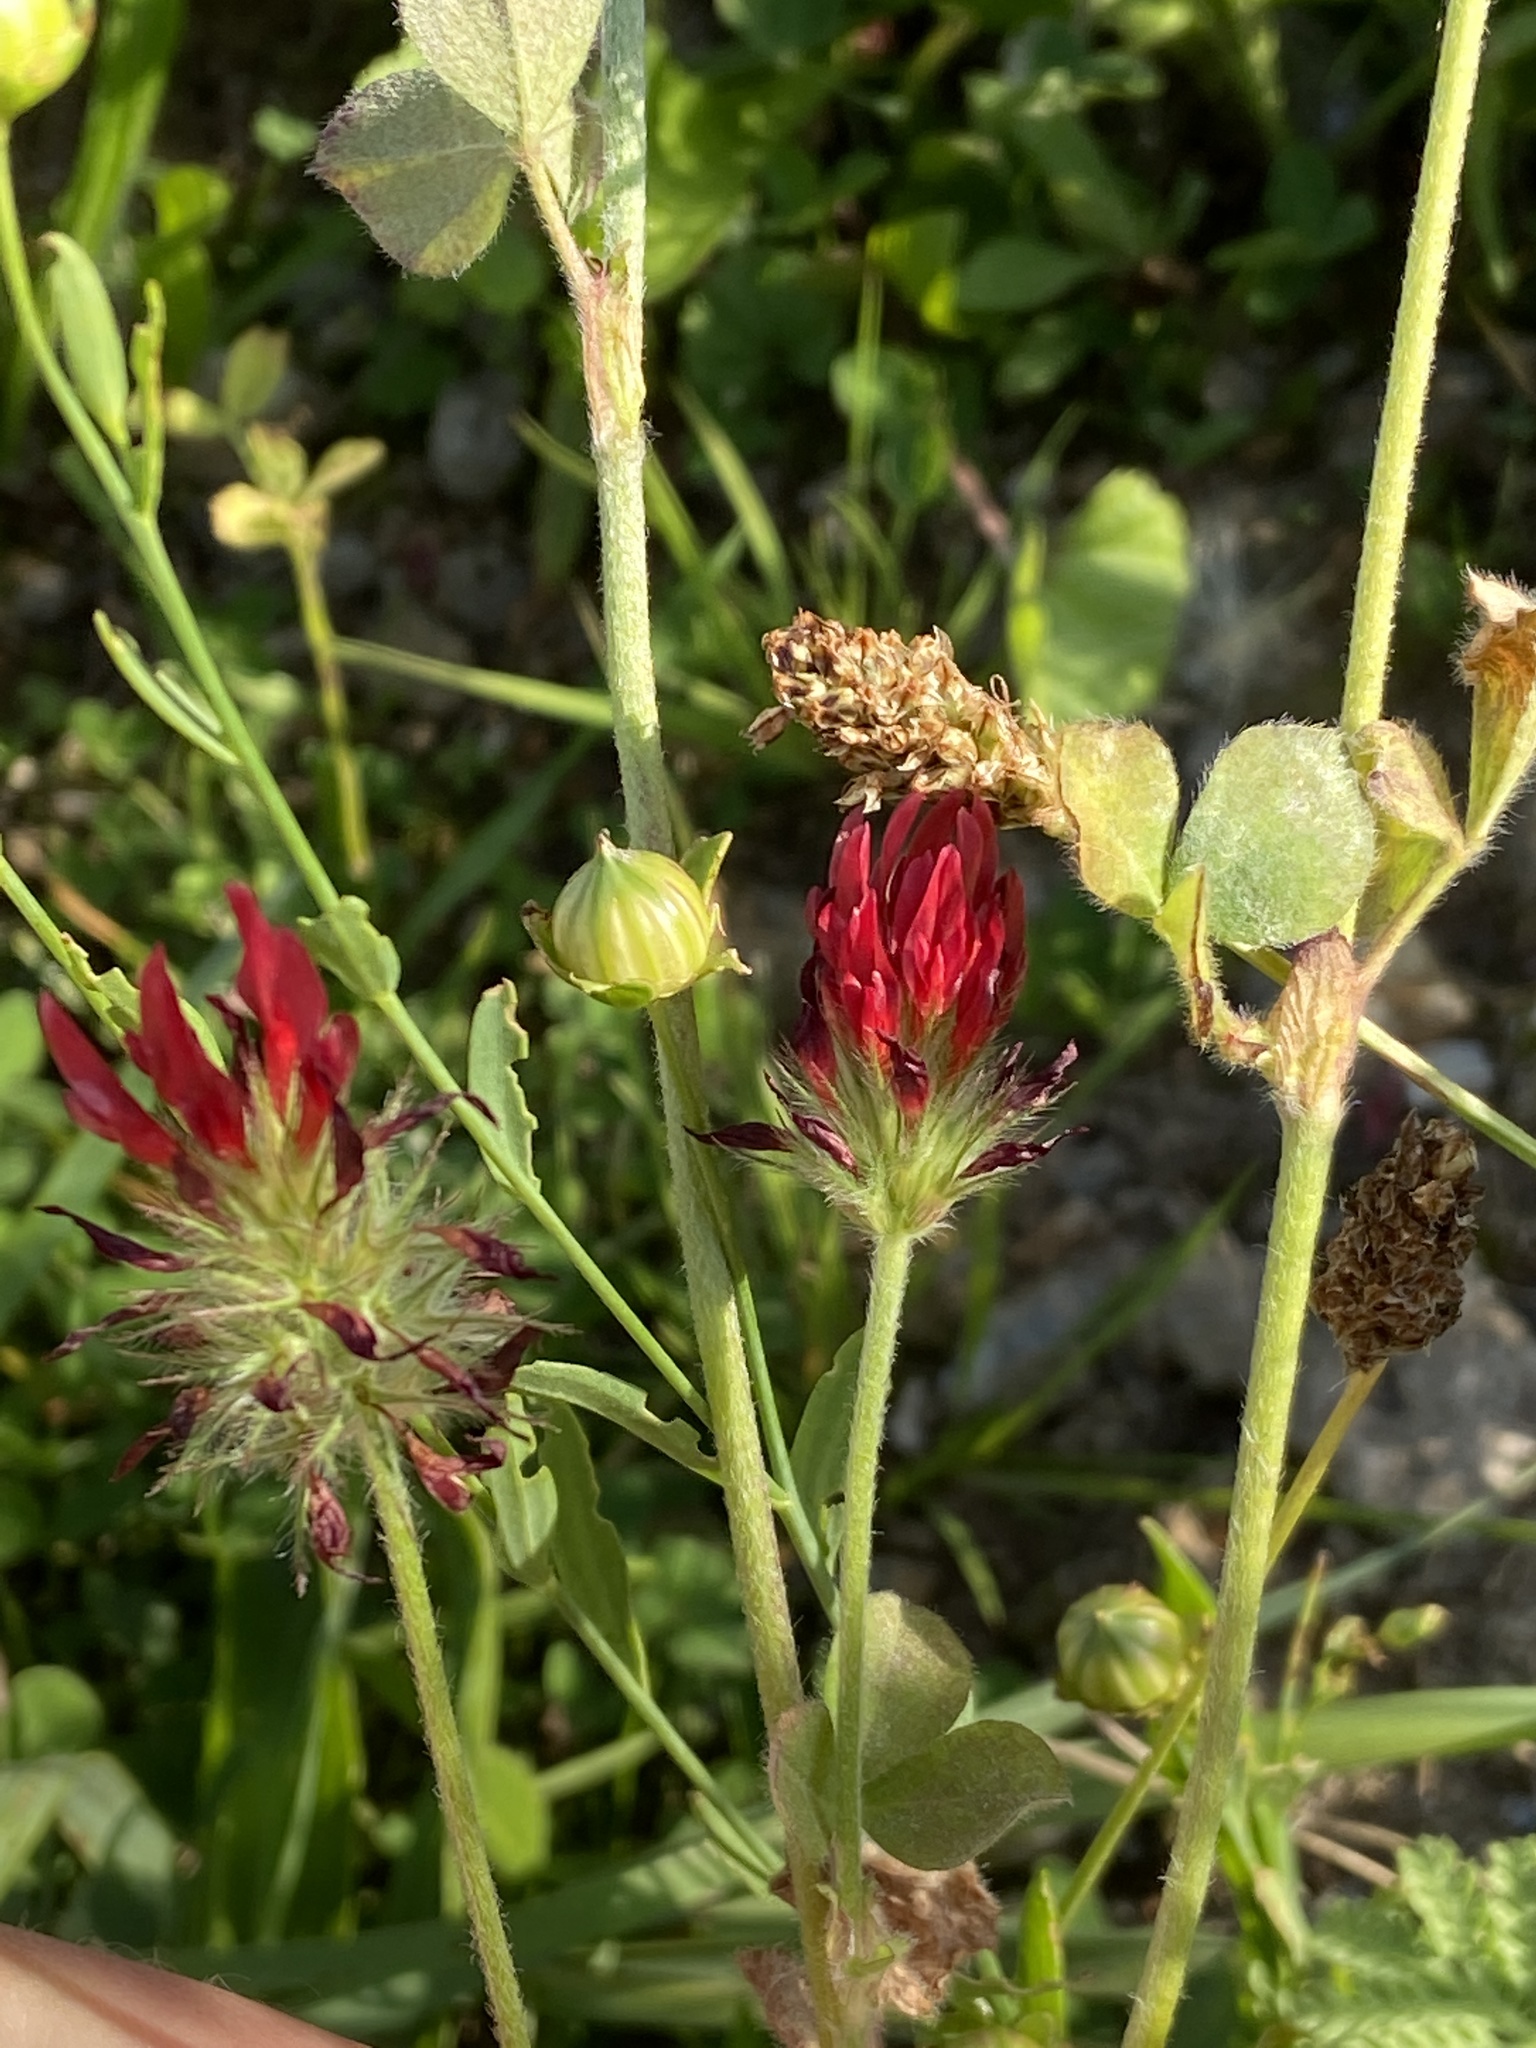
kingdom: Plantae
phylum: Tracheophyta
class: Magnoliopsida
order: Fabales
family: Fabaceae
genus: Trifolium
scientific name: Trifolium incarnatum
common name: Crimson clover
